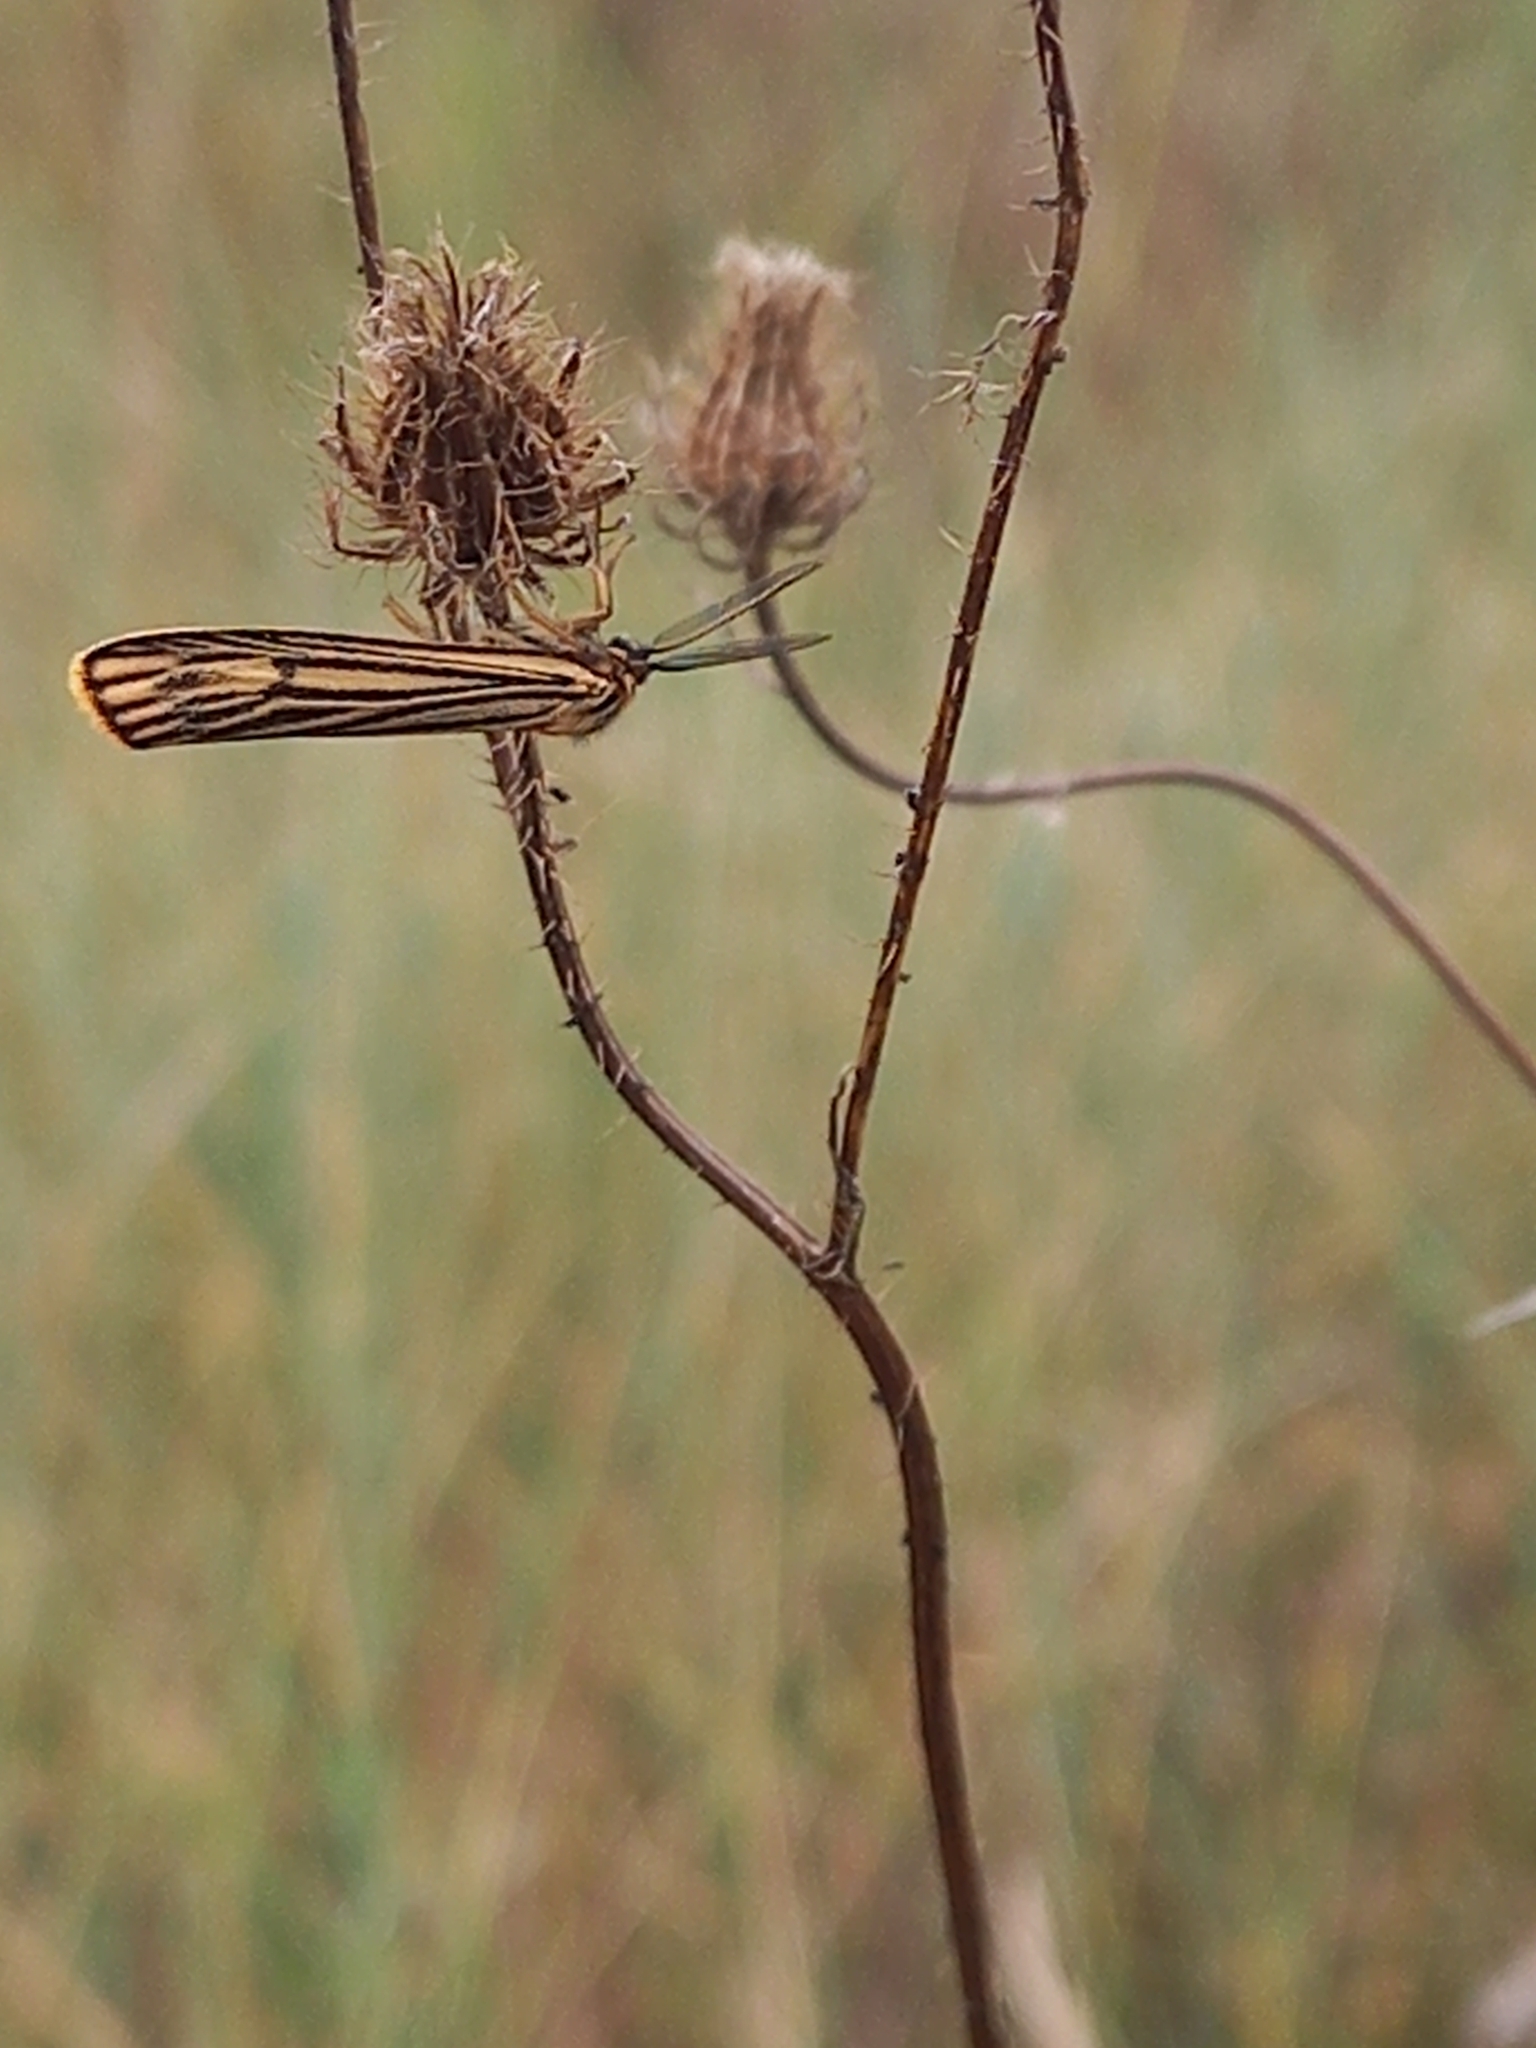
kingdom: Animalia
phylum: Arthropoda
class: Insecta
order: Lepidoptera
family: Erebidae
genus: Coscinia
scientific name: Coscinia Spiris striata
